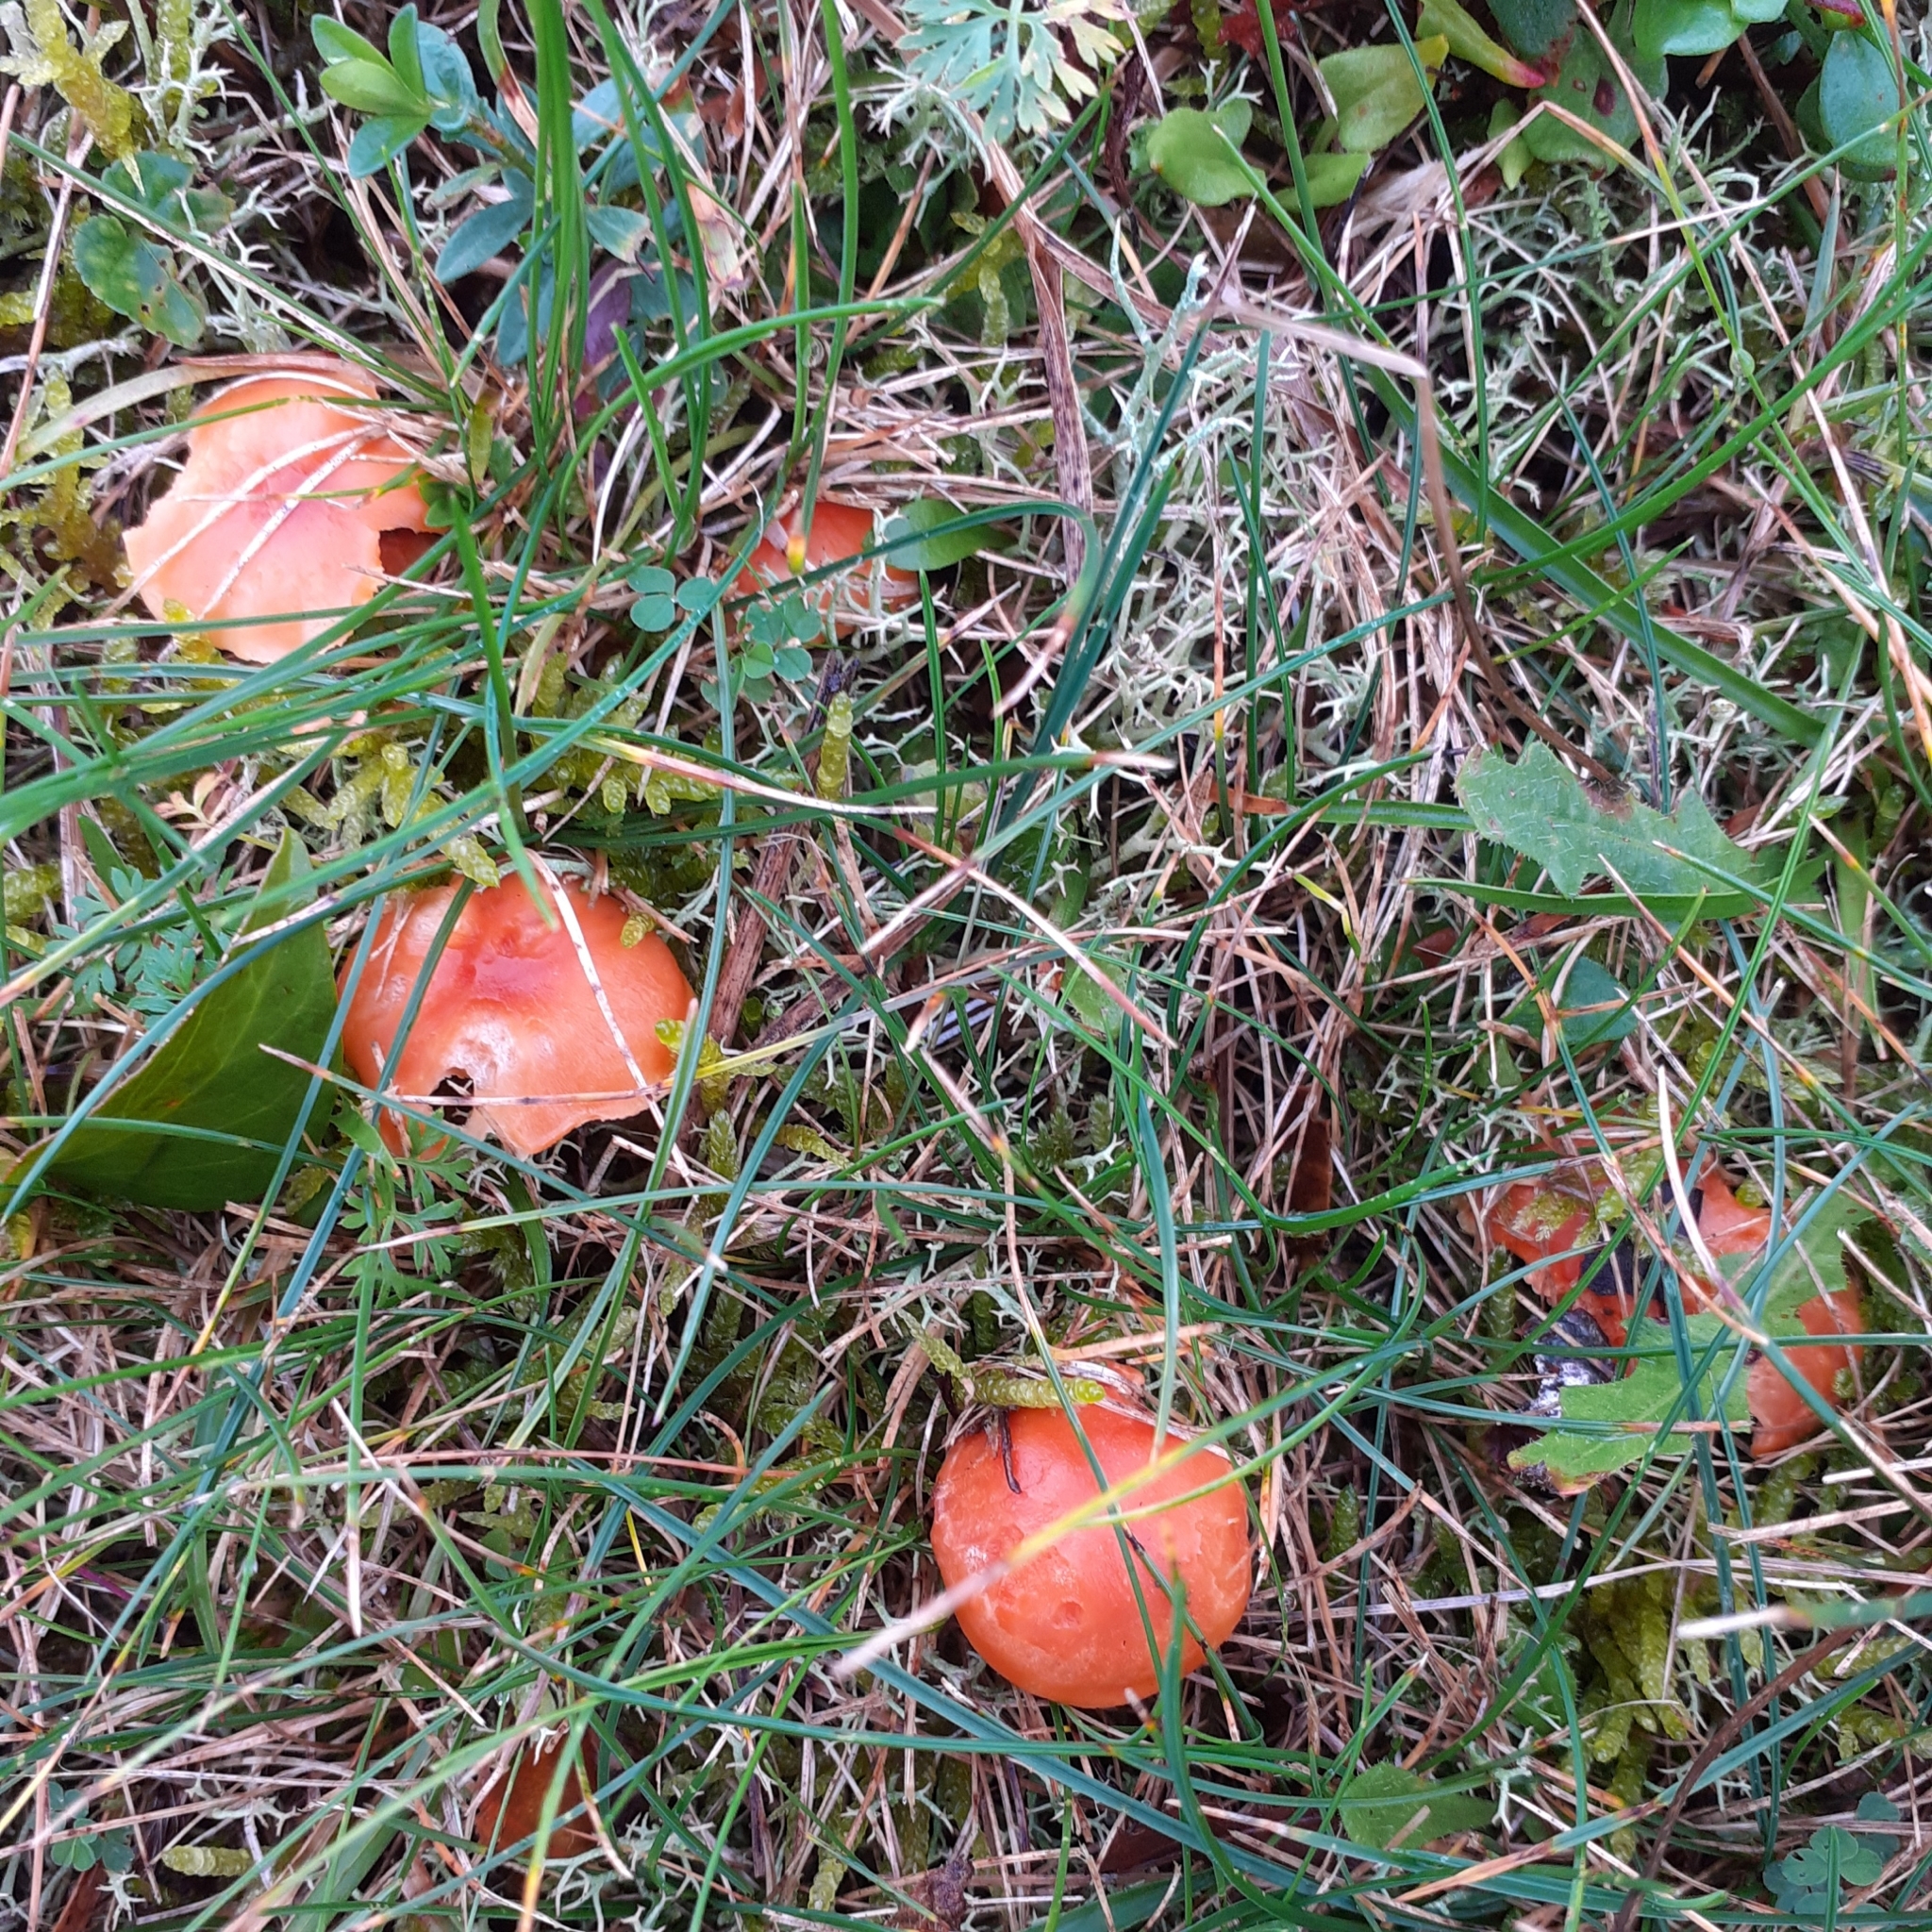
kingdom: Fungi
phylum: Basidiomycota
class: Agaricomycetes
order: Agaricales
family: Hygrophoraceae
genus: Cuphophyllus
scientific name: Cuphophyllus pratensis
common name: Meadow waxcap
